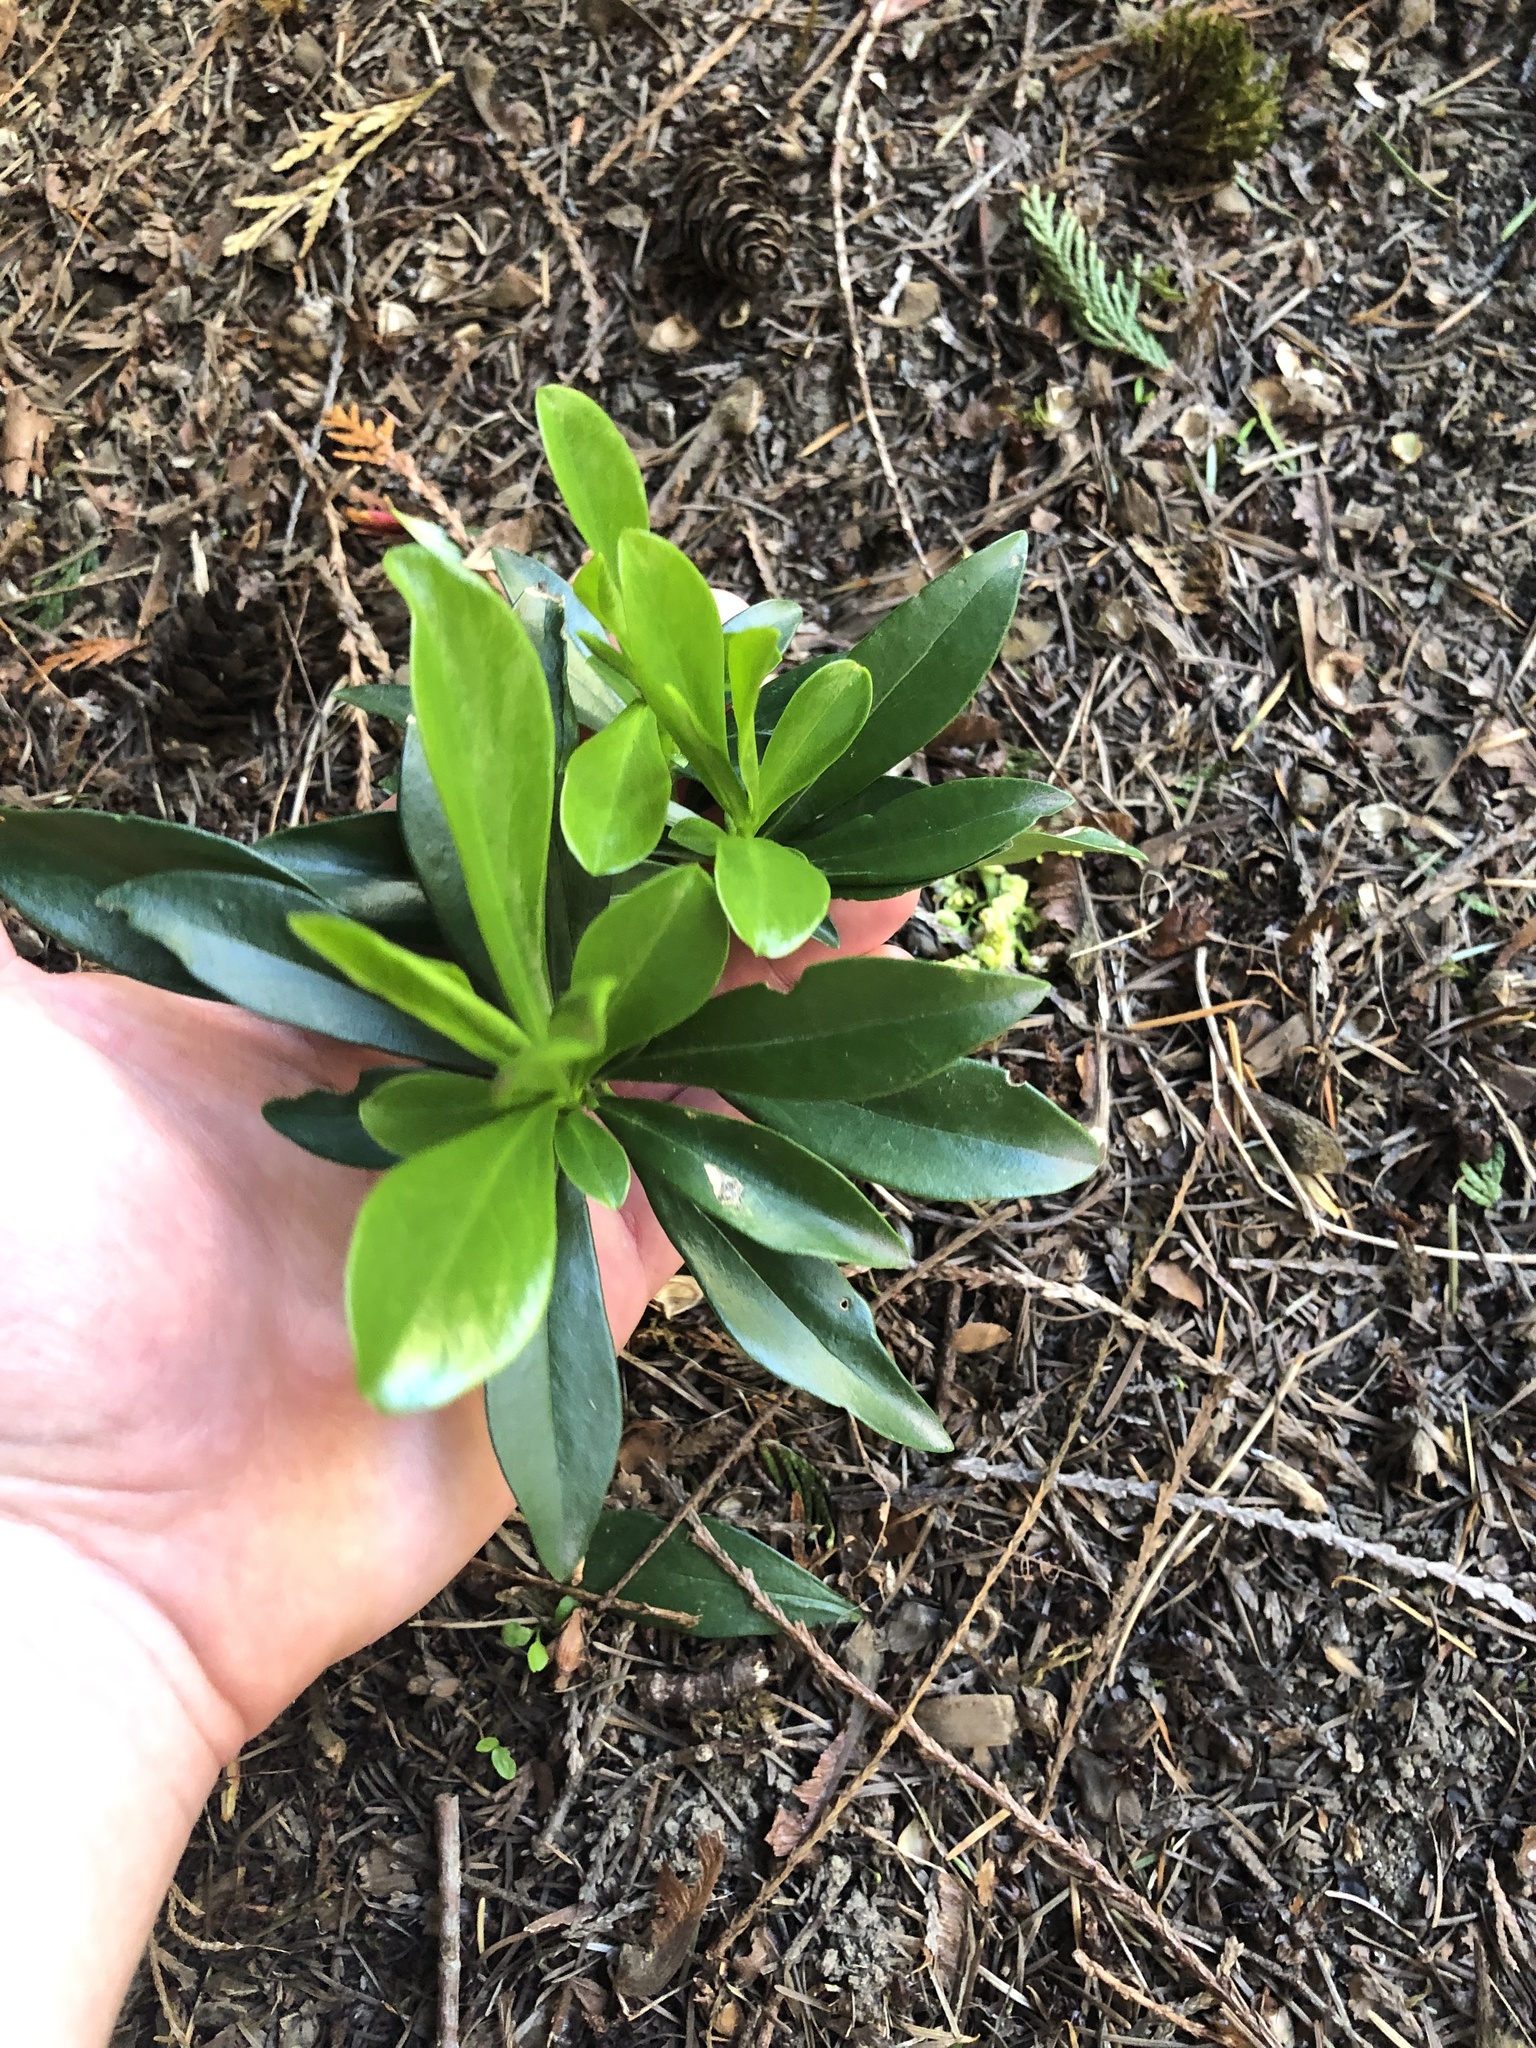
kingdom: Plantae
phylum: Tracheophyta
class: Magnoliopsida
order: Malvales
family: Thymelaeaceae
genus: Daphne
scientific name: Daphne laureola
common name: Spurge-laurel
